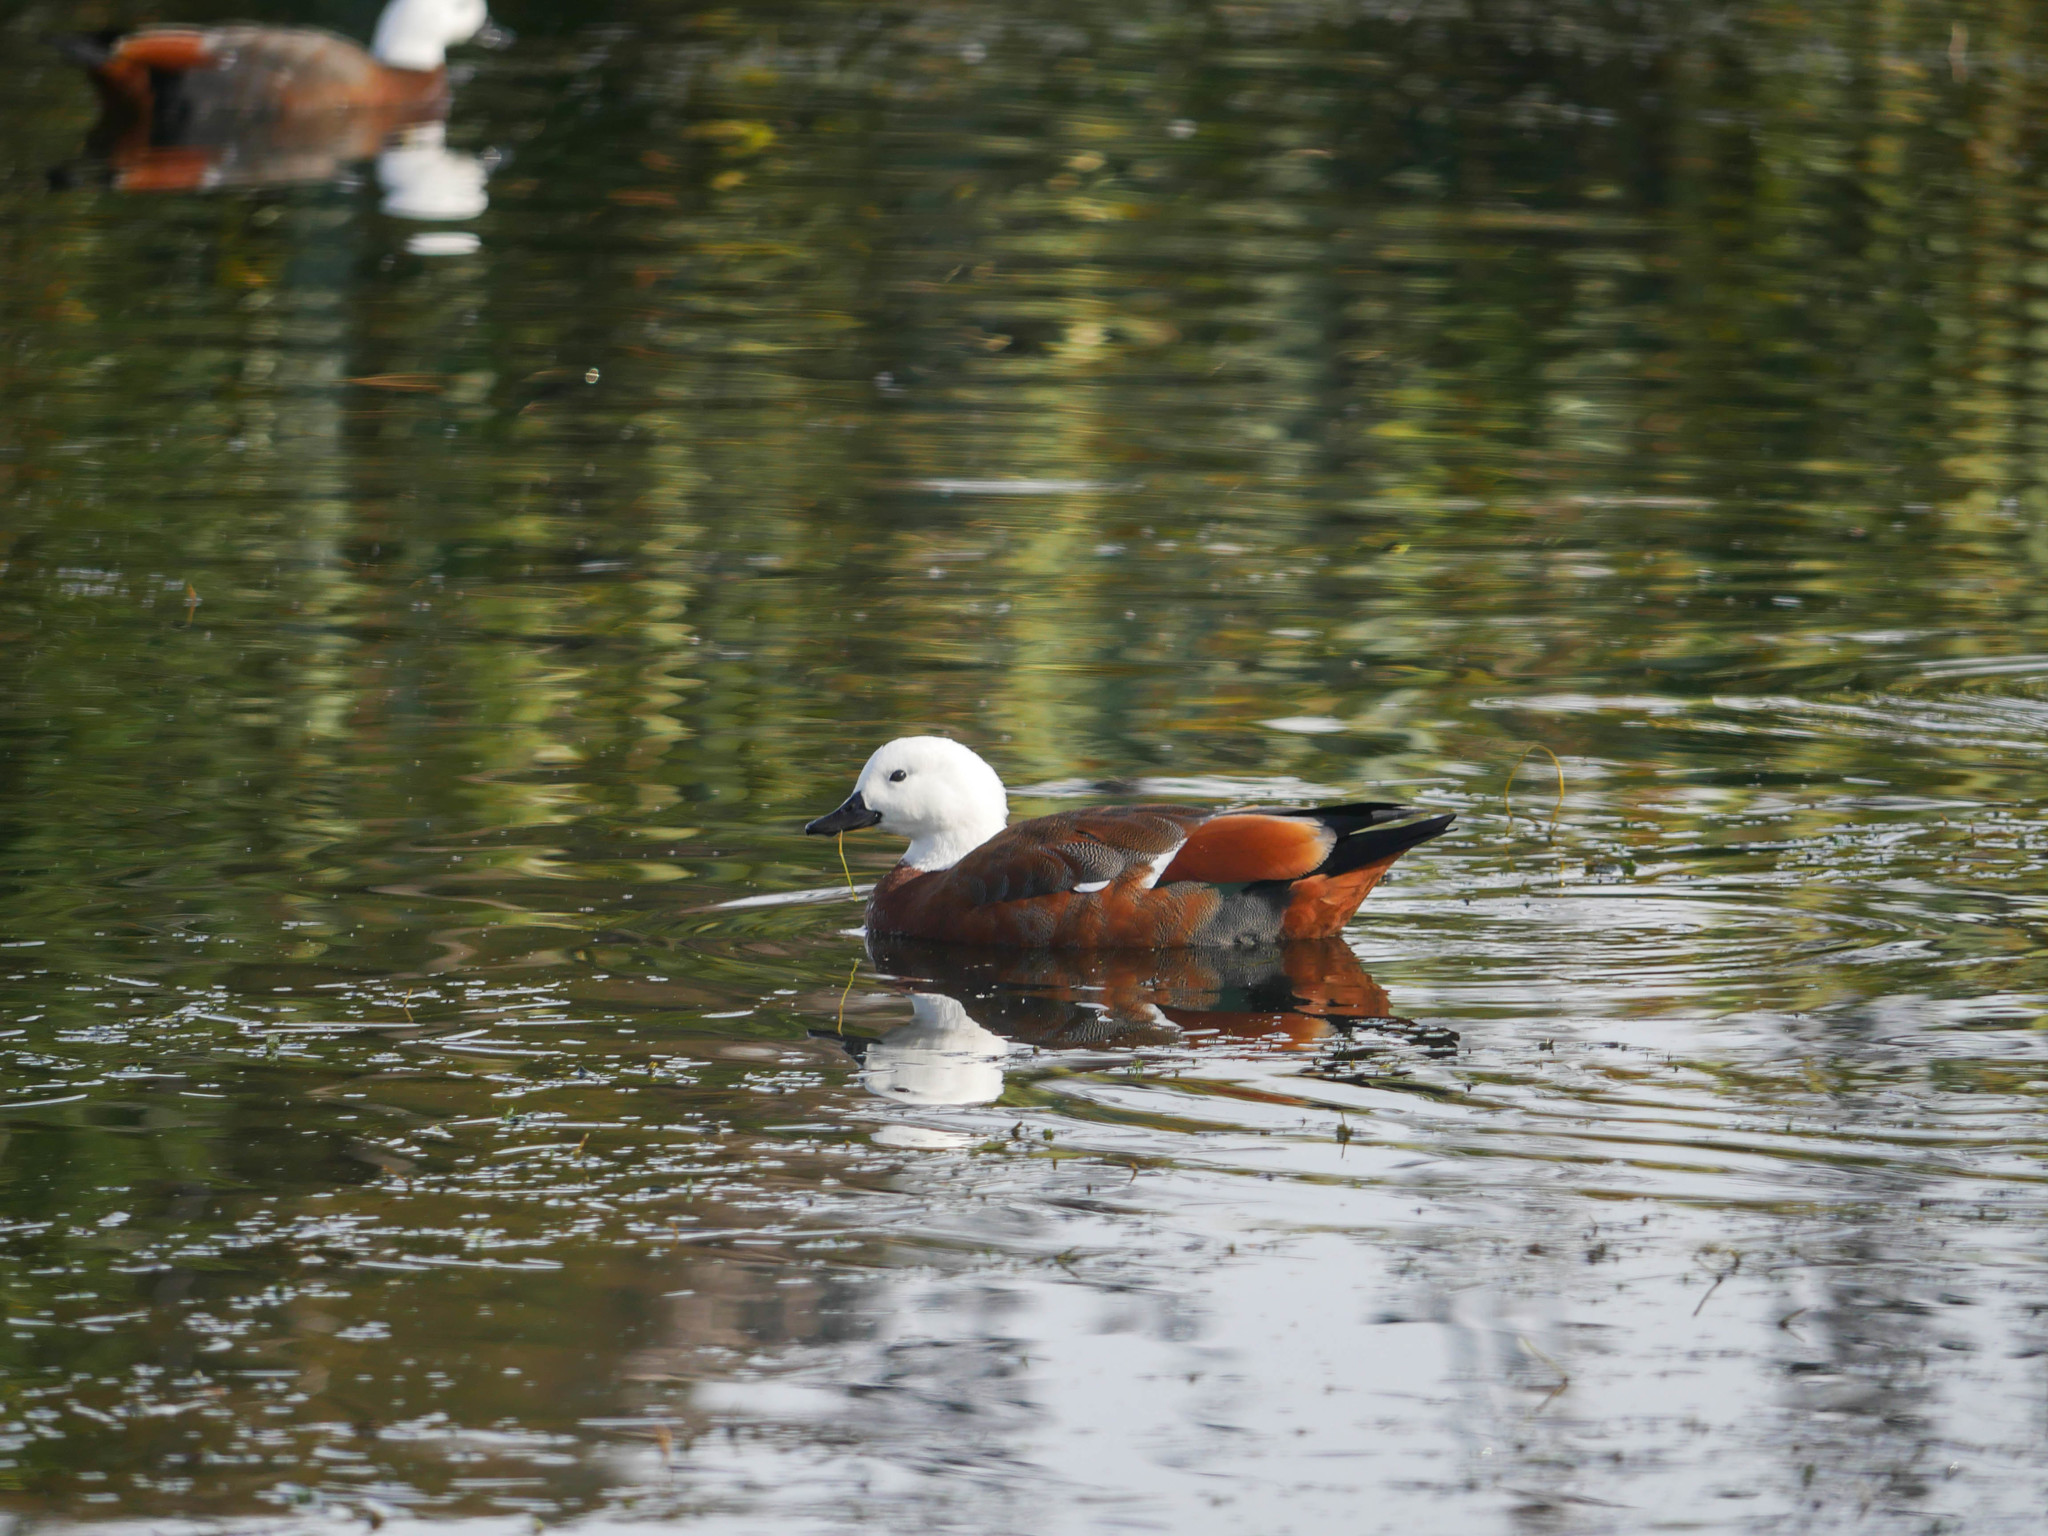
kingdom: Animalia
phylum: Chordata
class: Aves
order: Anseriformes
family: Anatidae
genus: Tadorna
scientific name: Tadorna variegata
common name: Paradise shelduck
